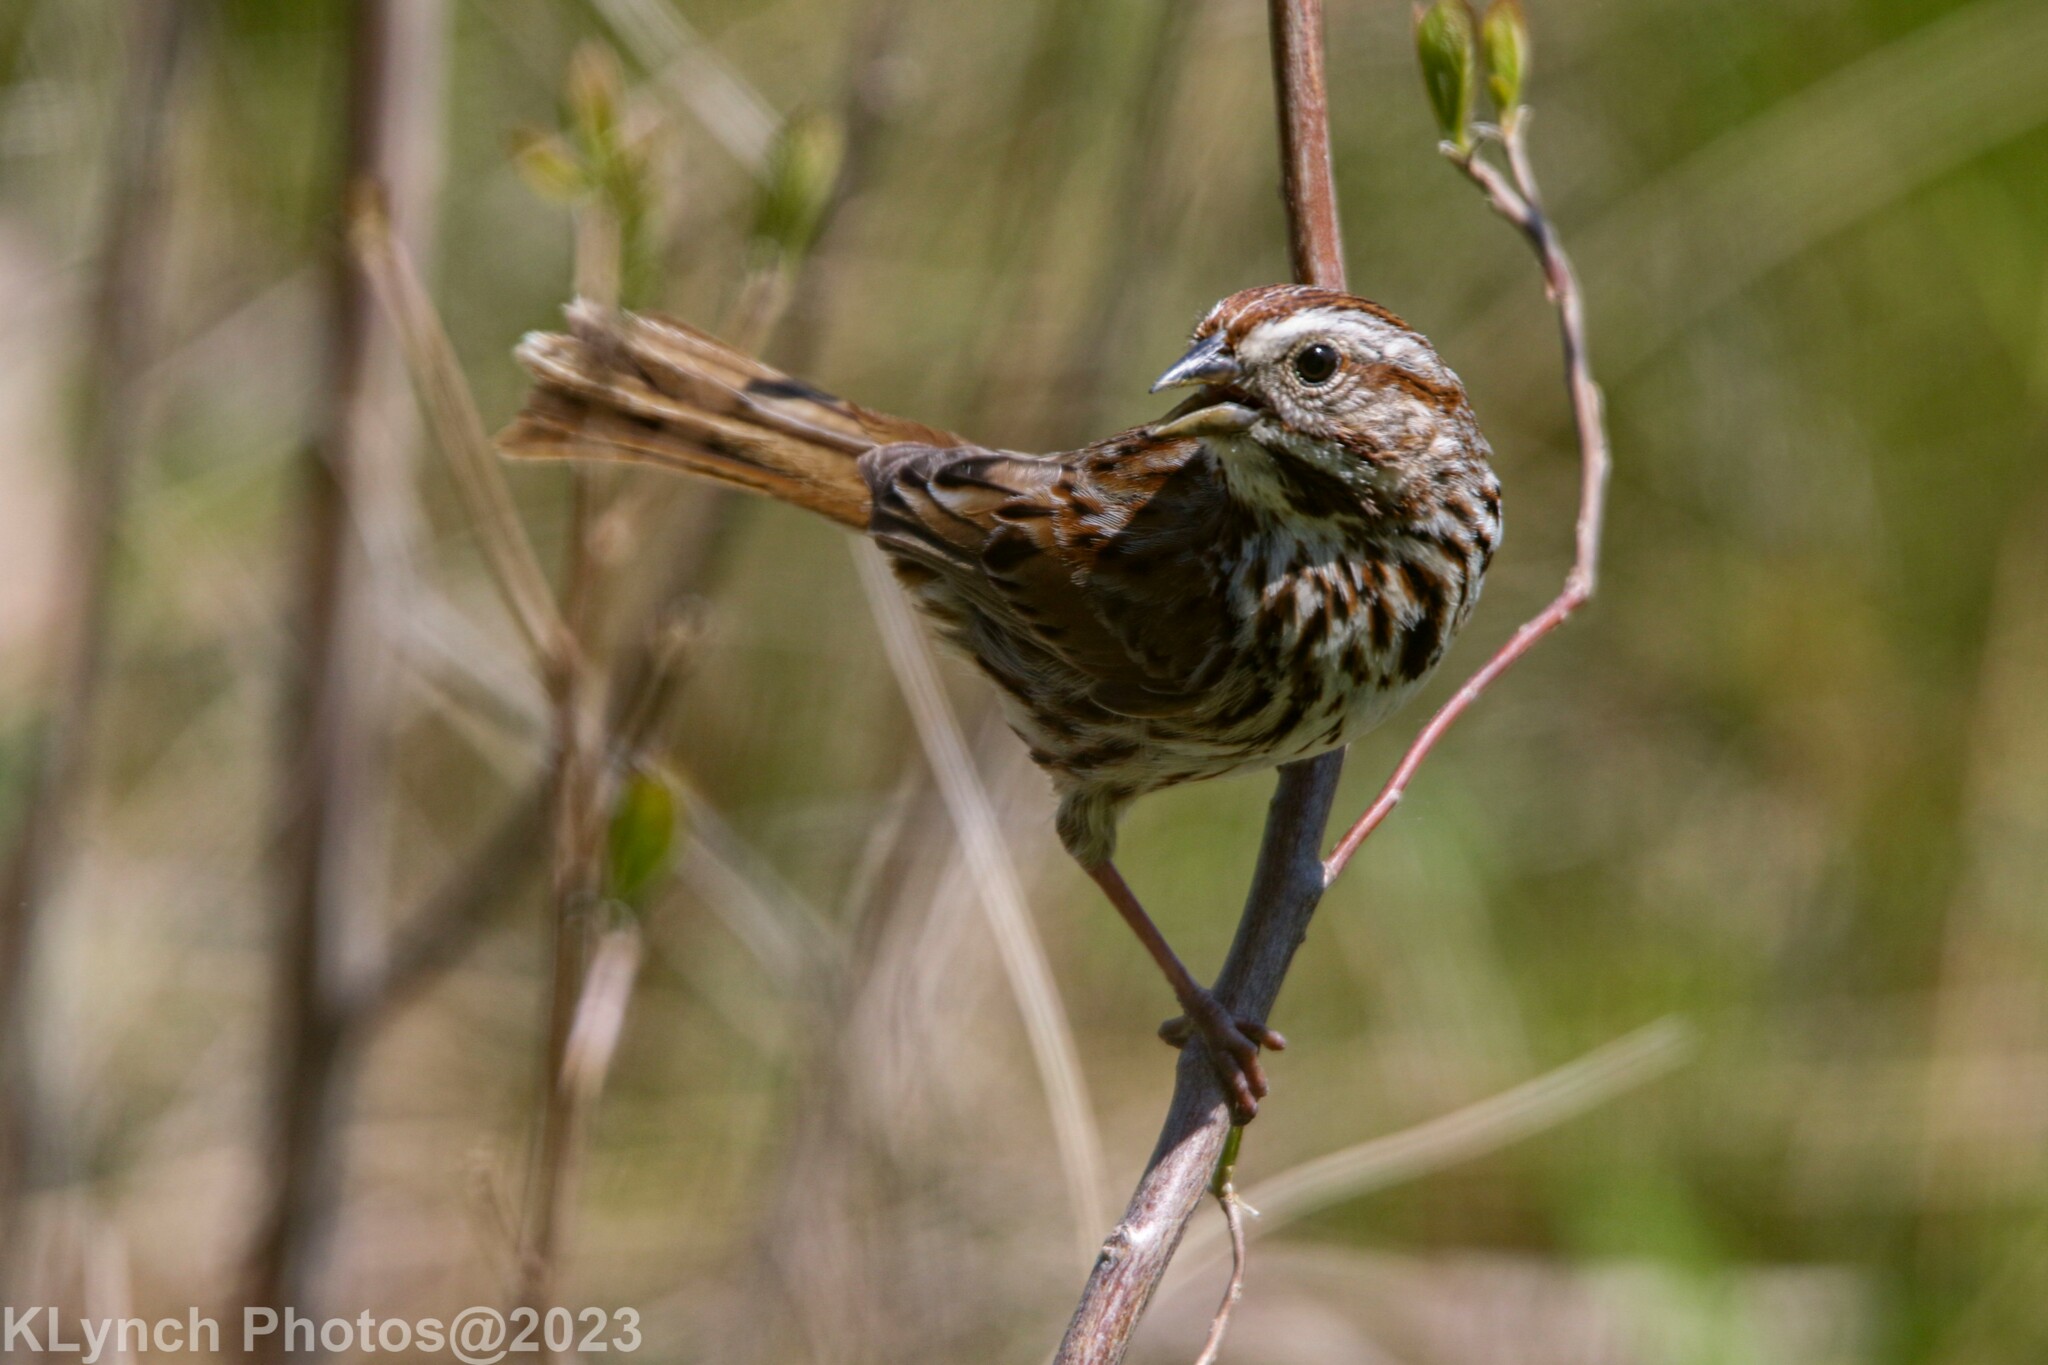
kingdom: Animalia
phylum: Chordata
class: Aves
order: Passeriformes
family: Passerellidae
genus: Melospiza
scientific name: Melospiza melodia
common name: Song sparrow
